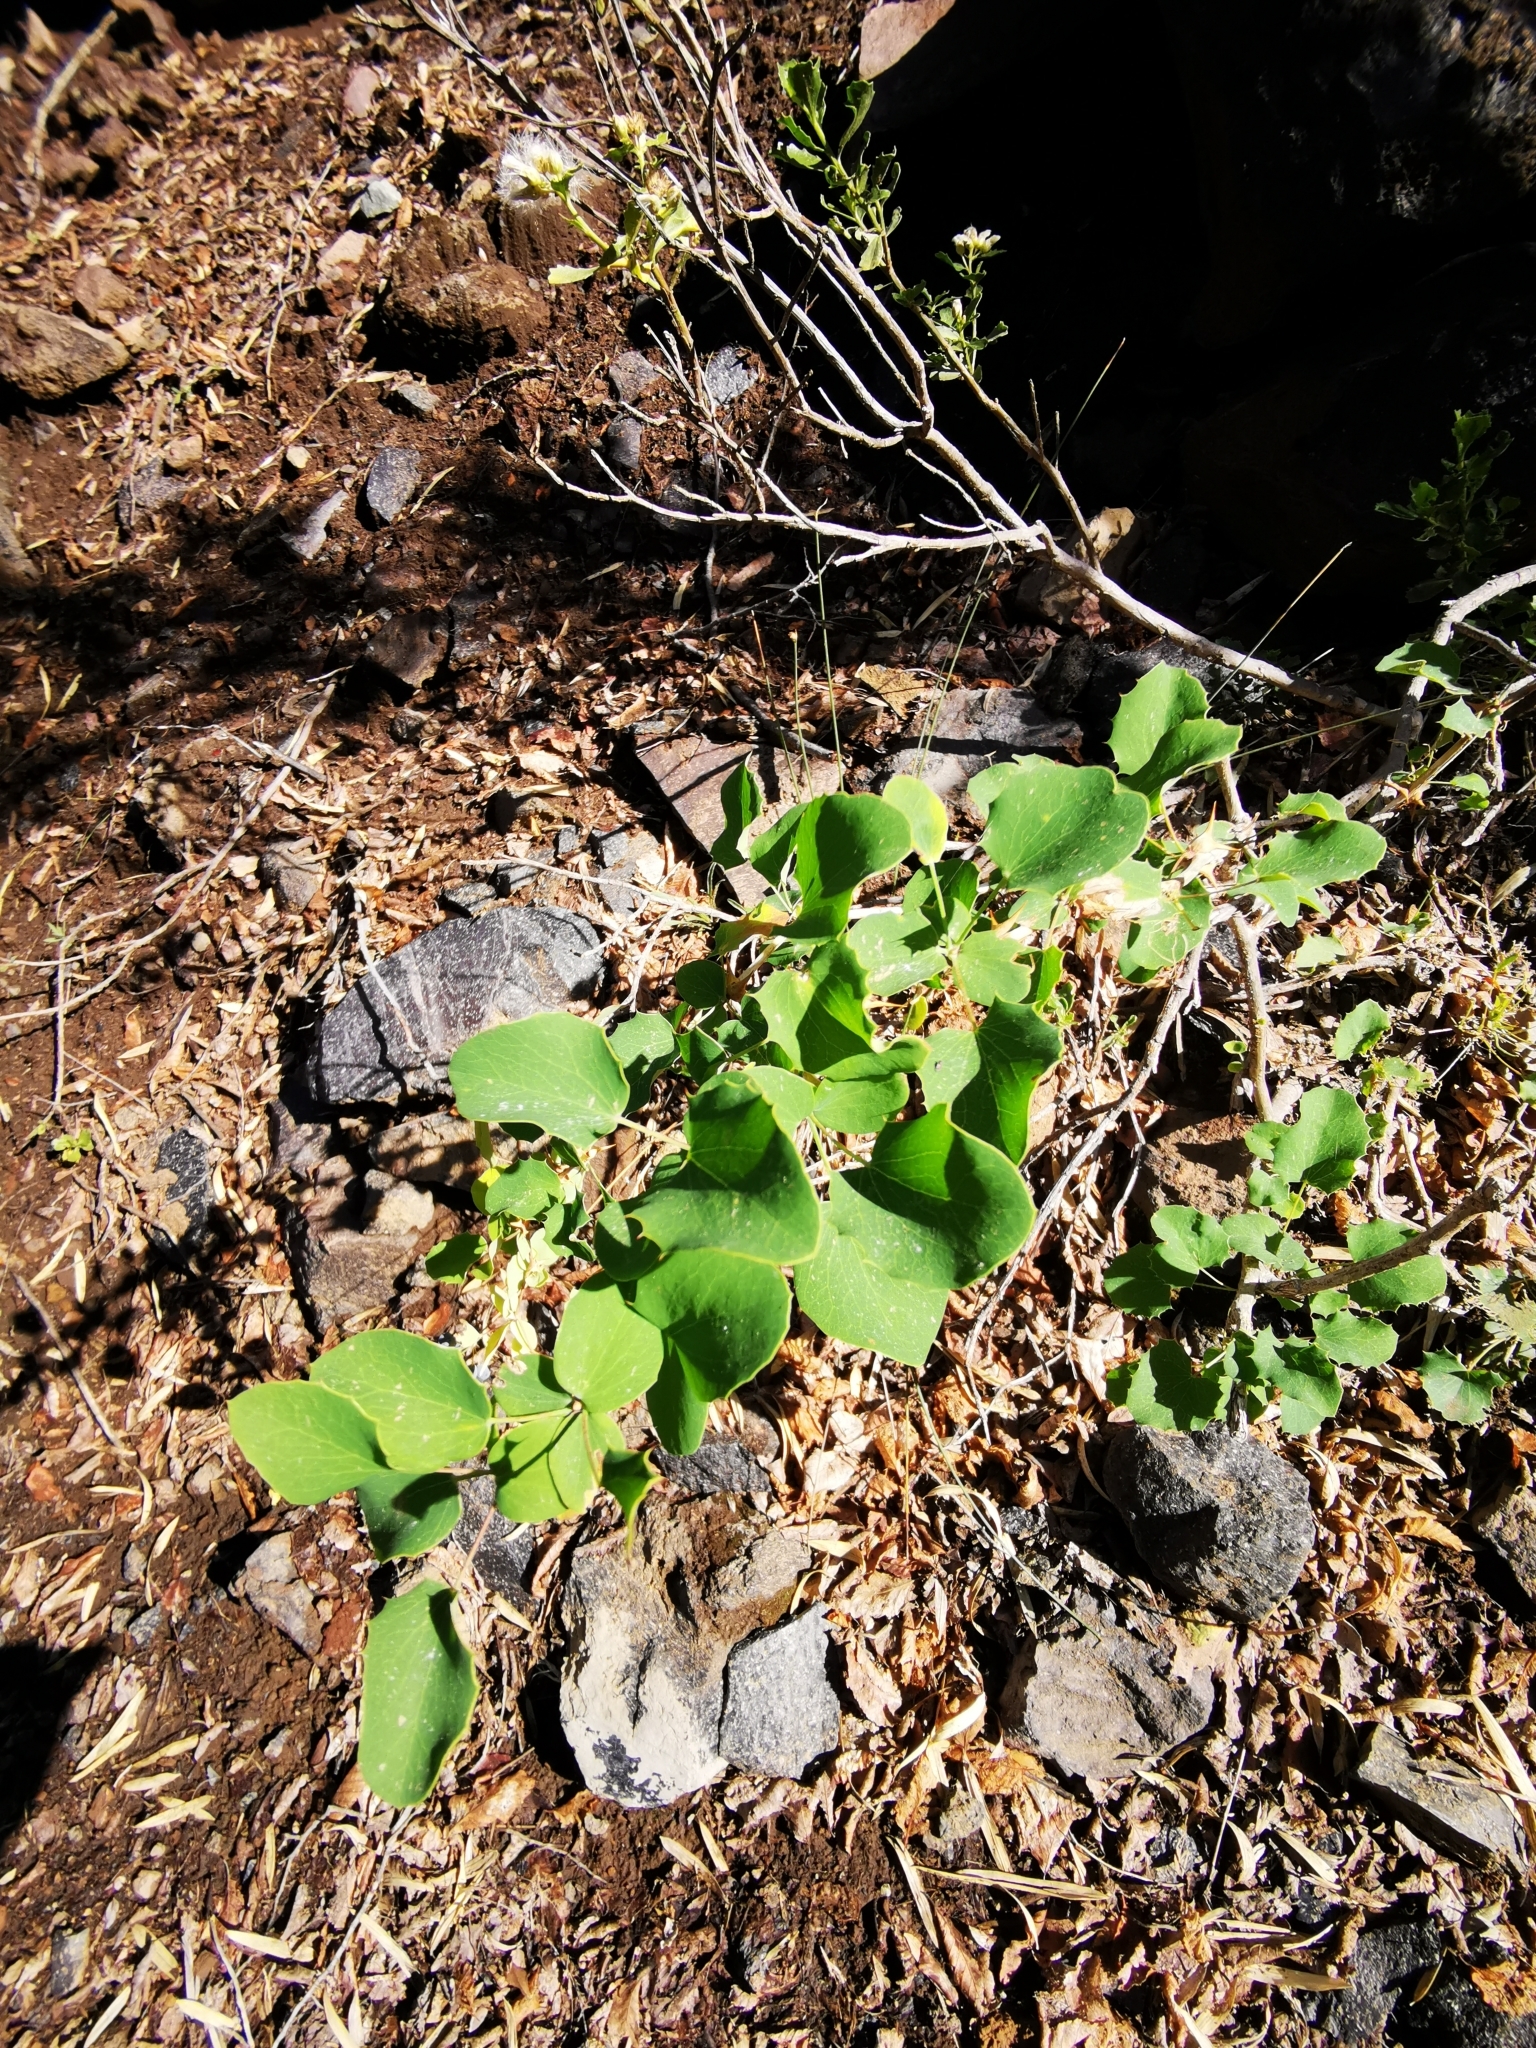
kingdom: Plantae
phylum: Tracheophyta
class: Magnoliopsida
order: Ranunculales
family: Berberidaceae
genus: Berberis
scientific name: Berberis rotundifolia
